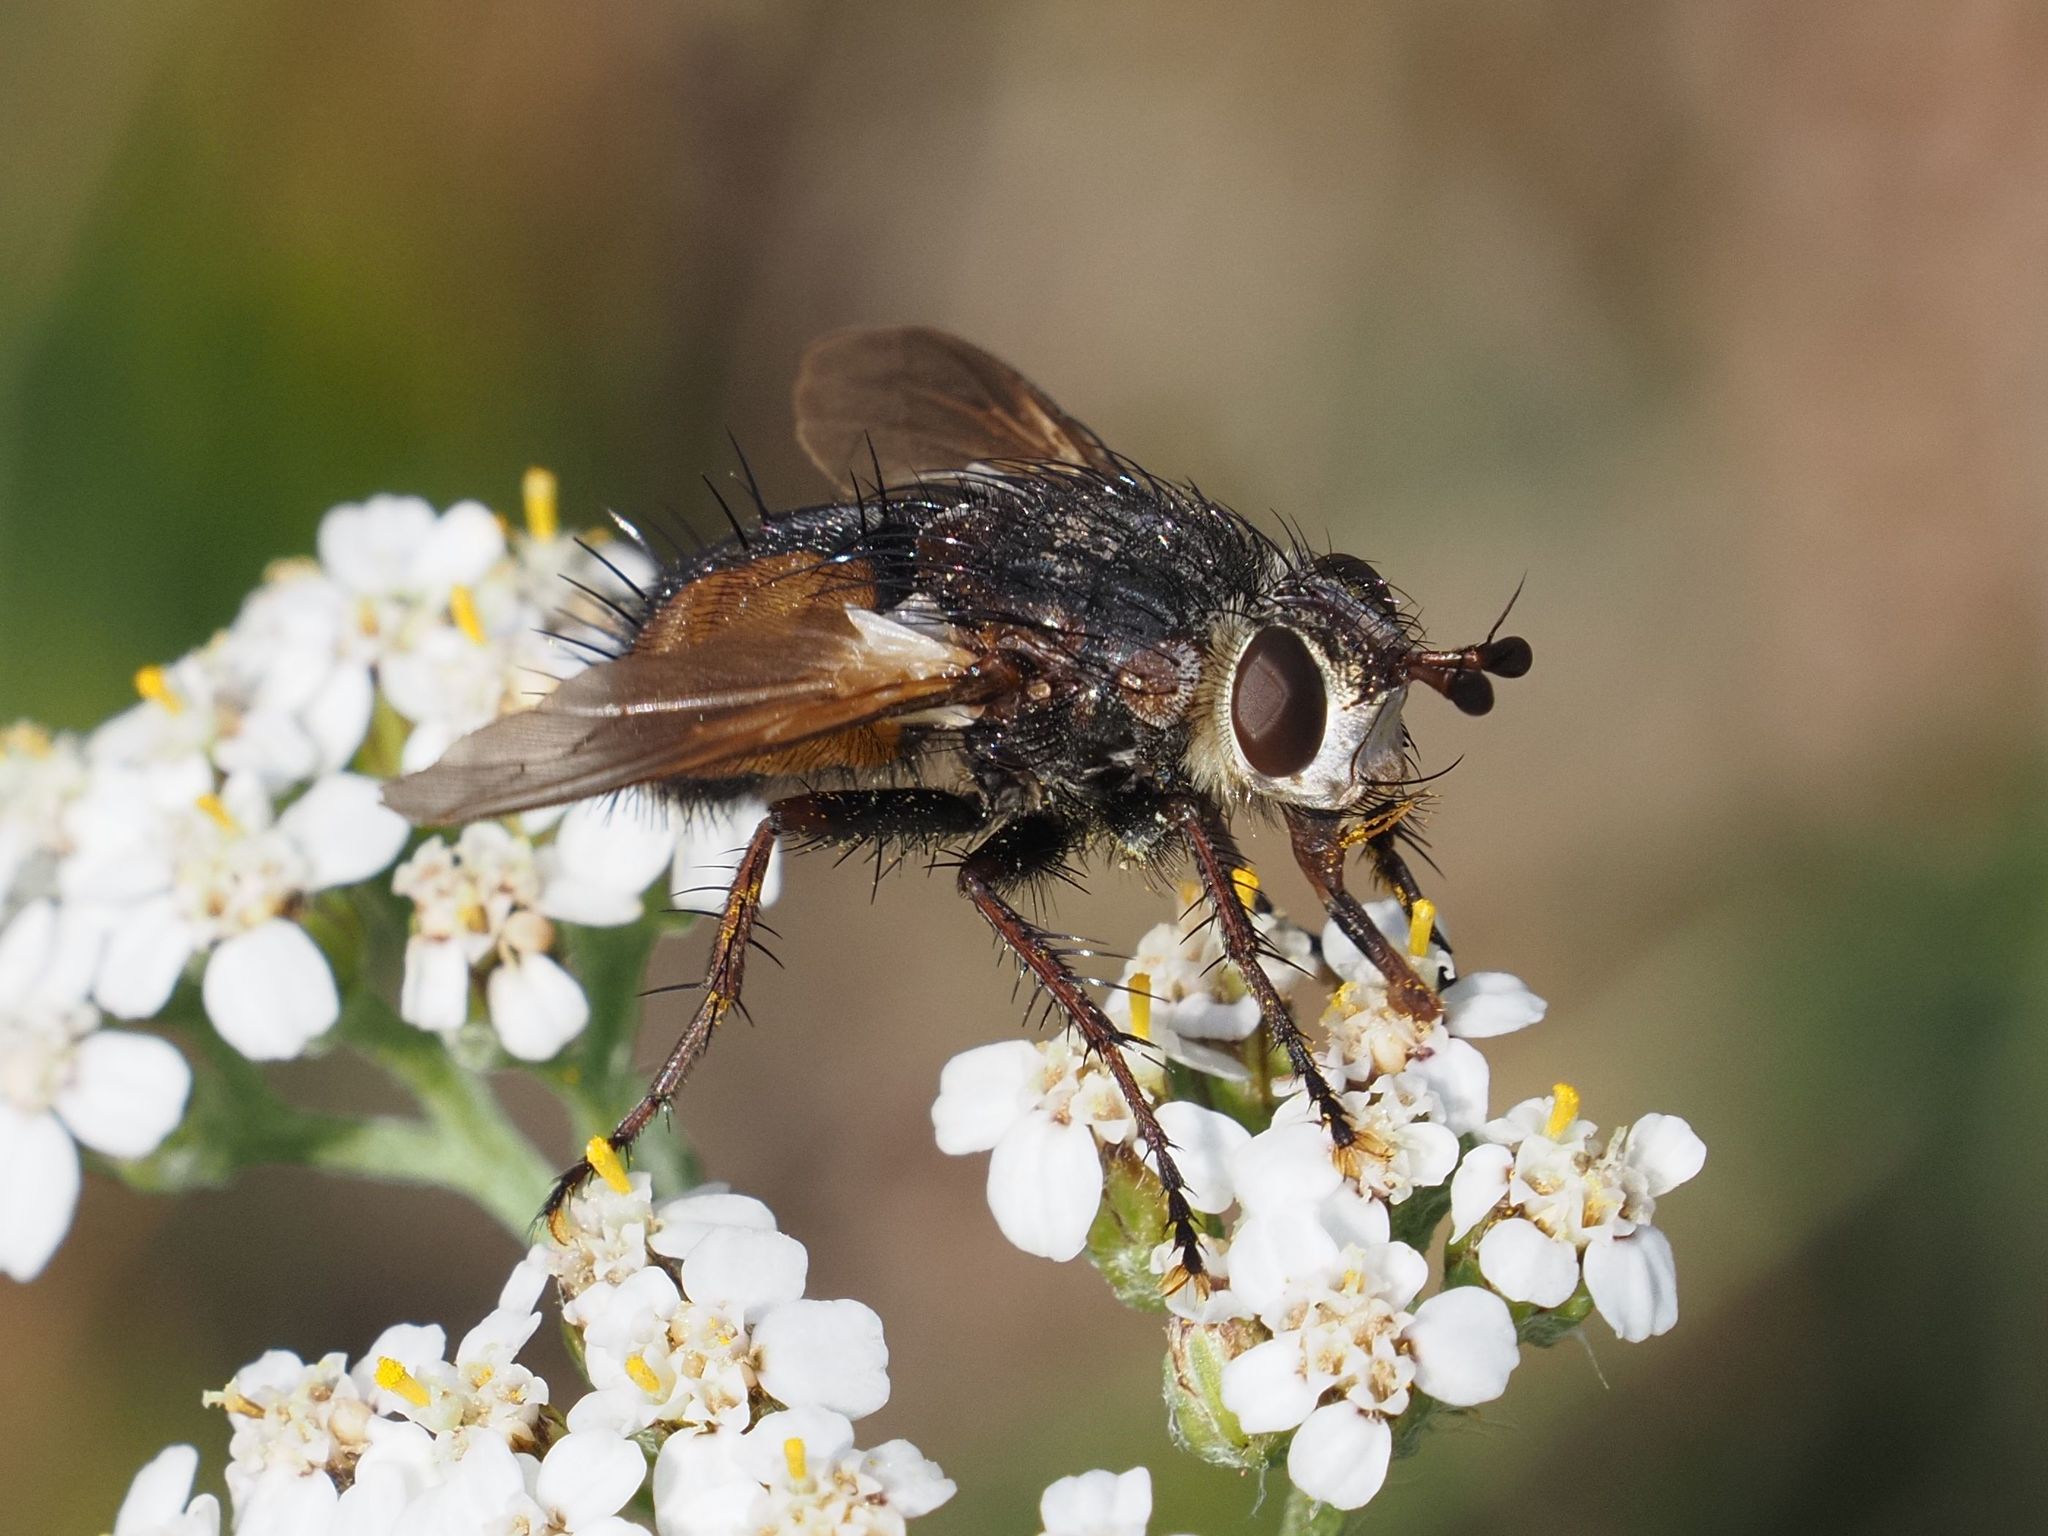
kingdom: Animalia
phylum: Arthropoda
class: Insecta
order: Diptera
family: Tachinidae
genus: Tachina
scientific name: Tachina fera
